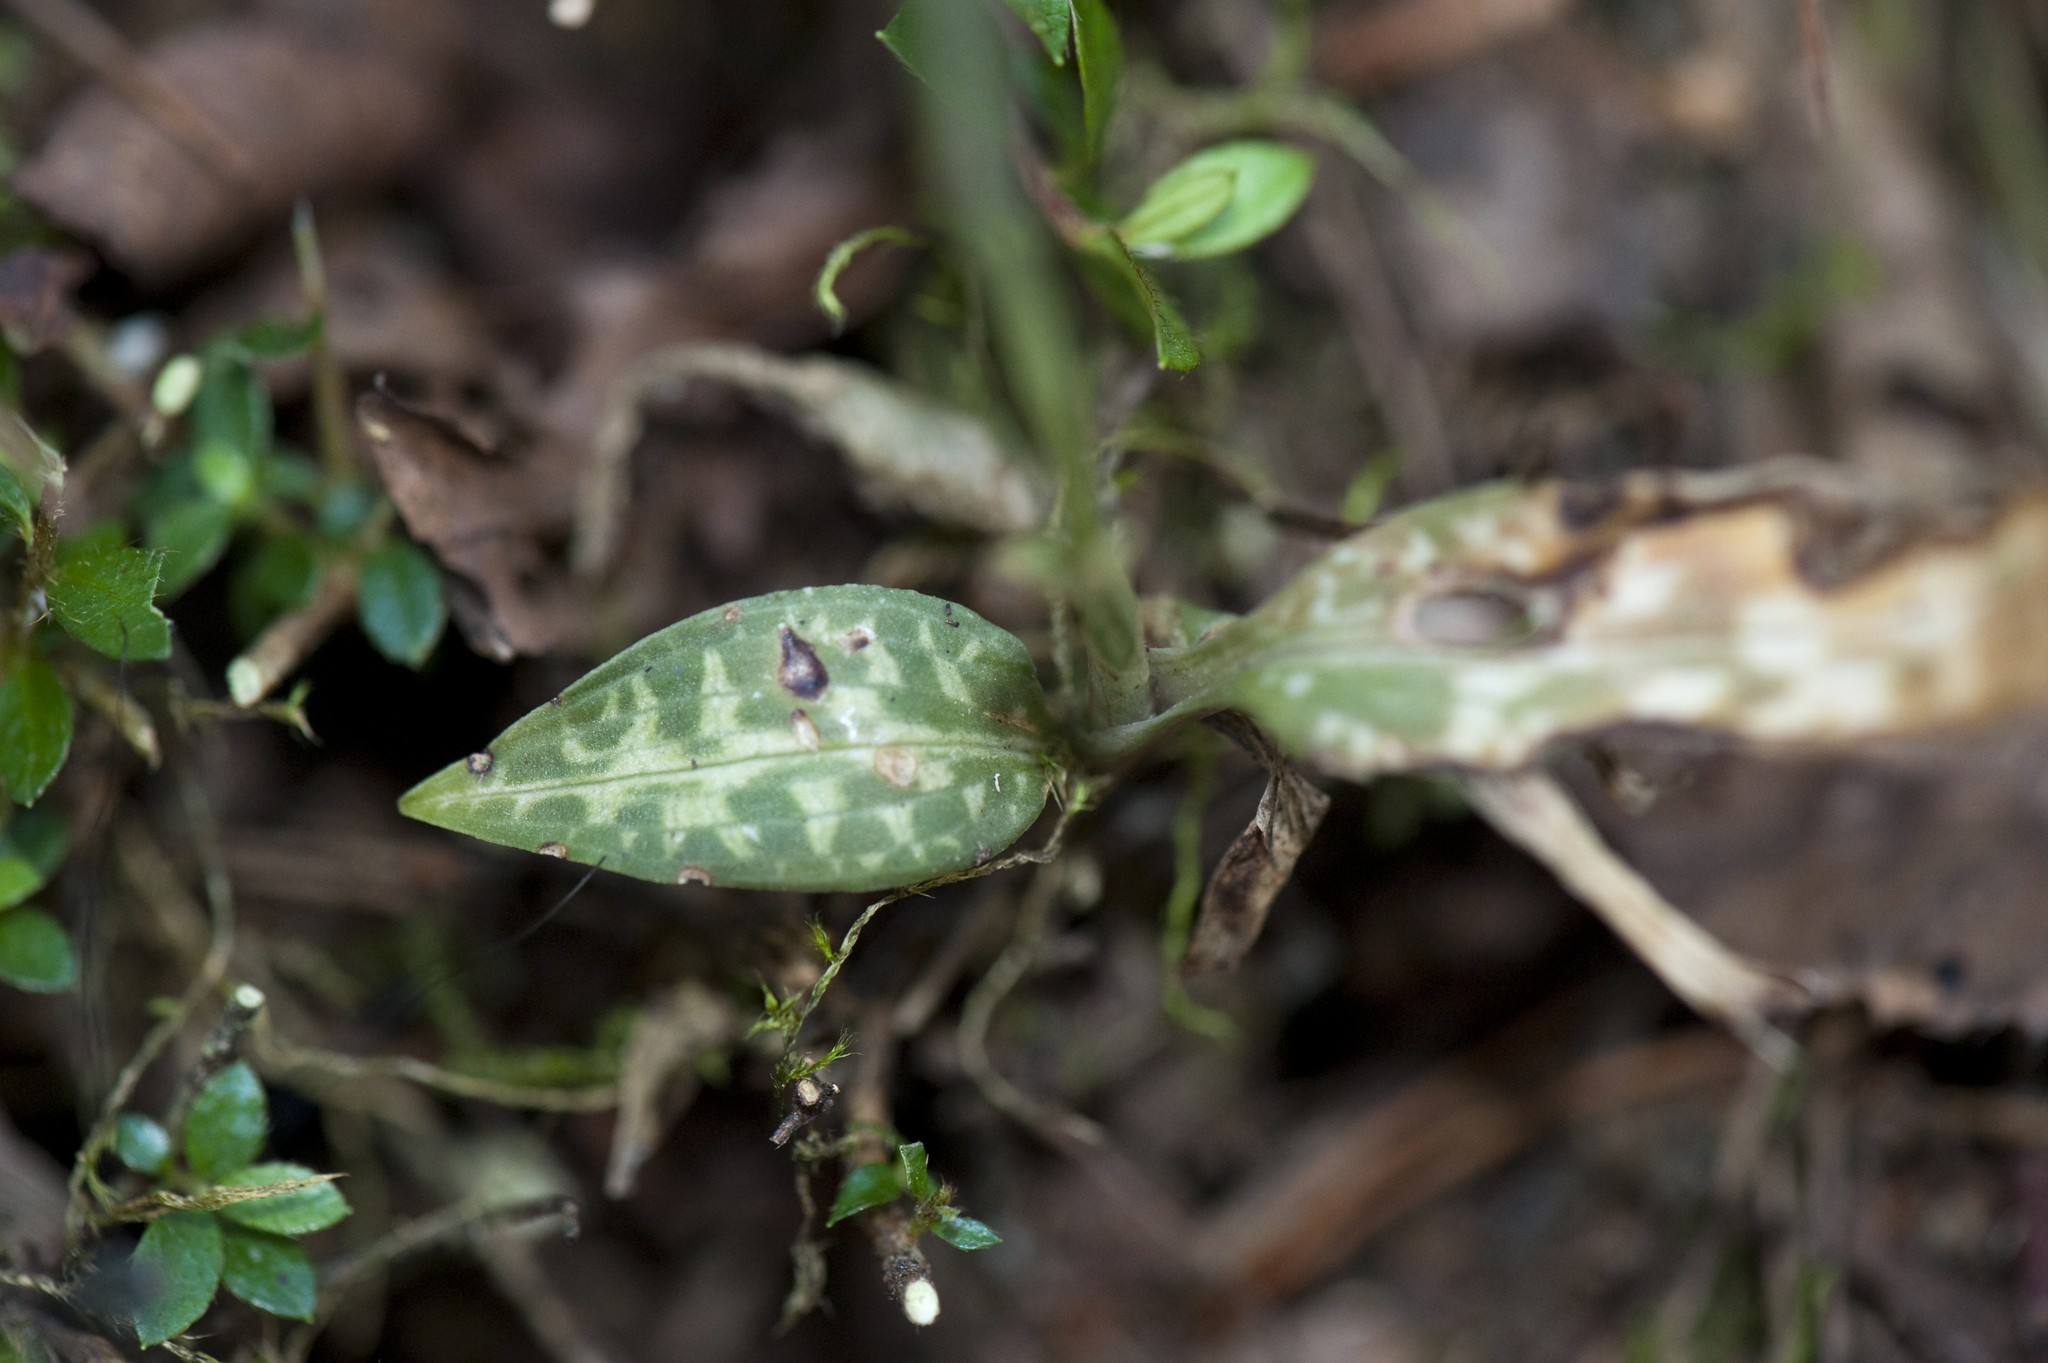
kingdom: Plantae
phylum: Tracheophyta
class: Liliopsida
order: Asparagales
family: Orchidaceae
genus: Goodyera
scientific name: Goodyera schlechtendaliana
